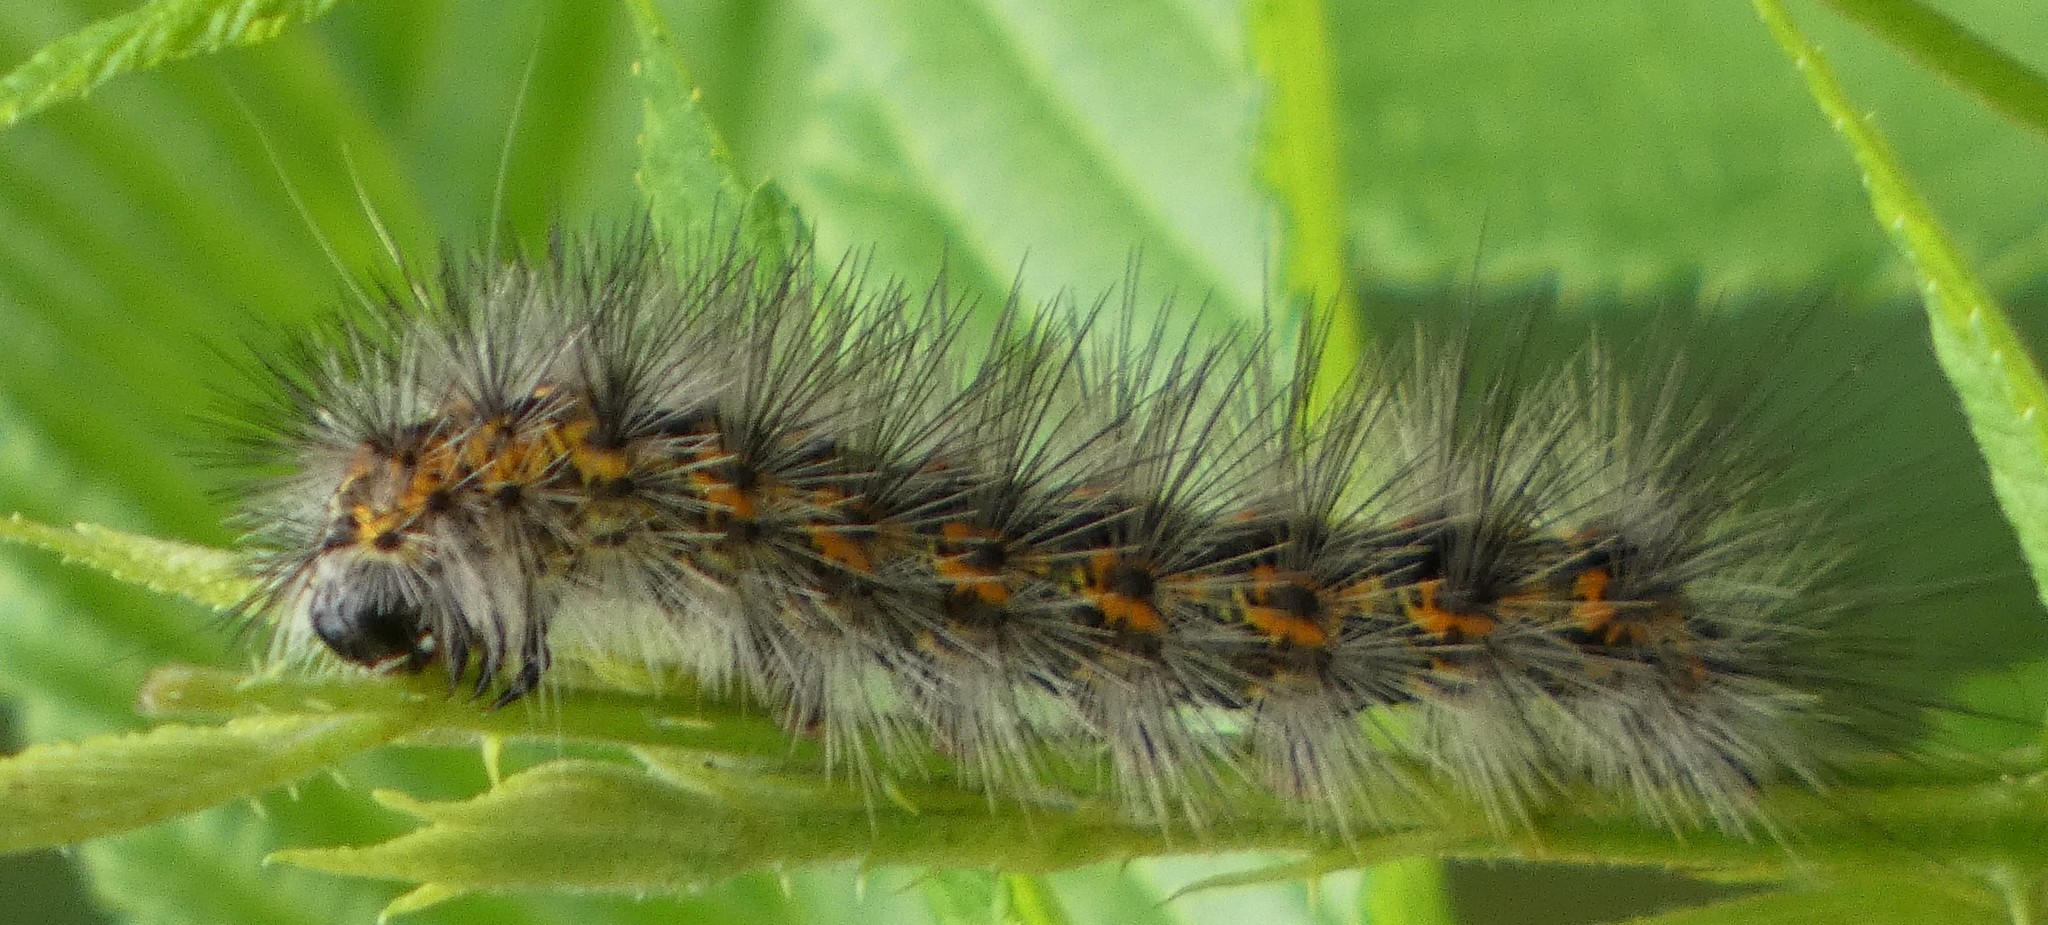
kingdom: Animalia
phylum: Arthropoda
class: Insecta
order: Lepidoptera
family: Erebidae
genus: Spilosoma
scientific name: Spilosoma dubia
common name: Dubious tiger moth
